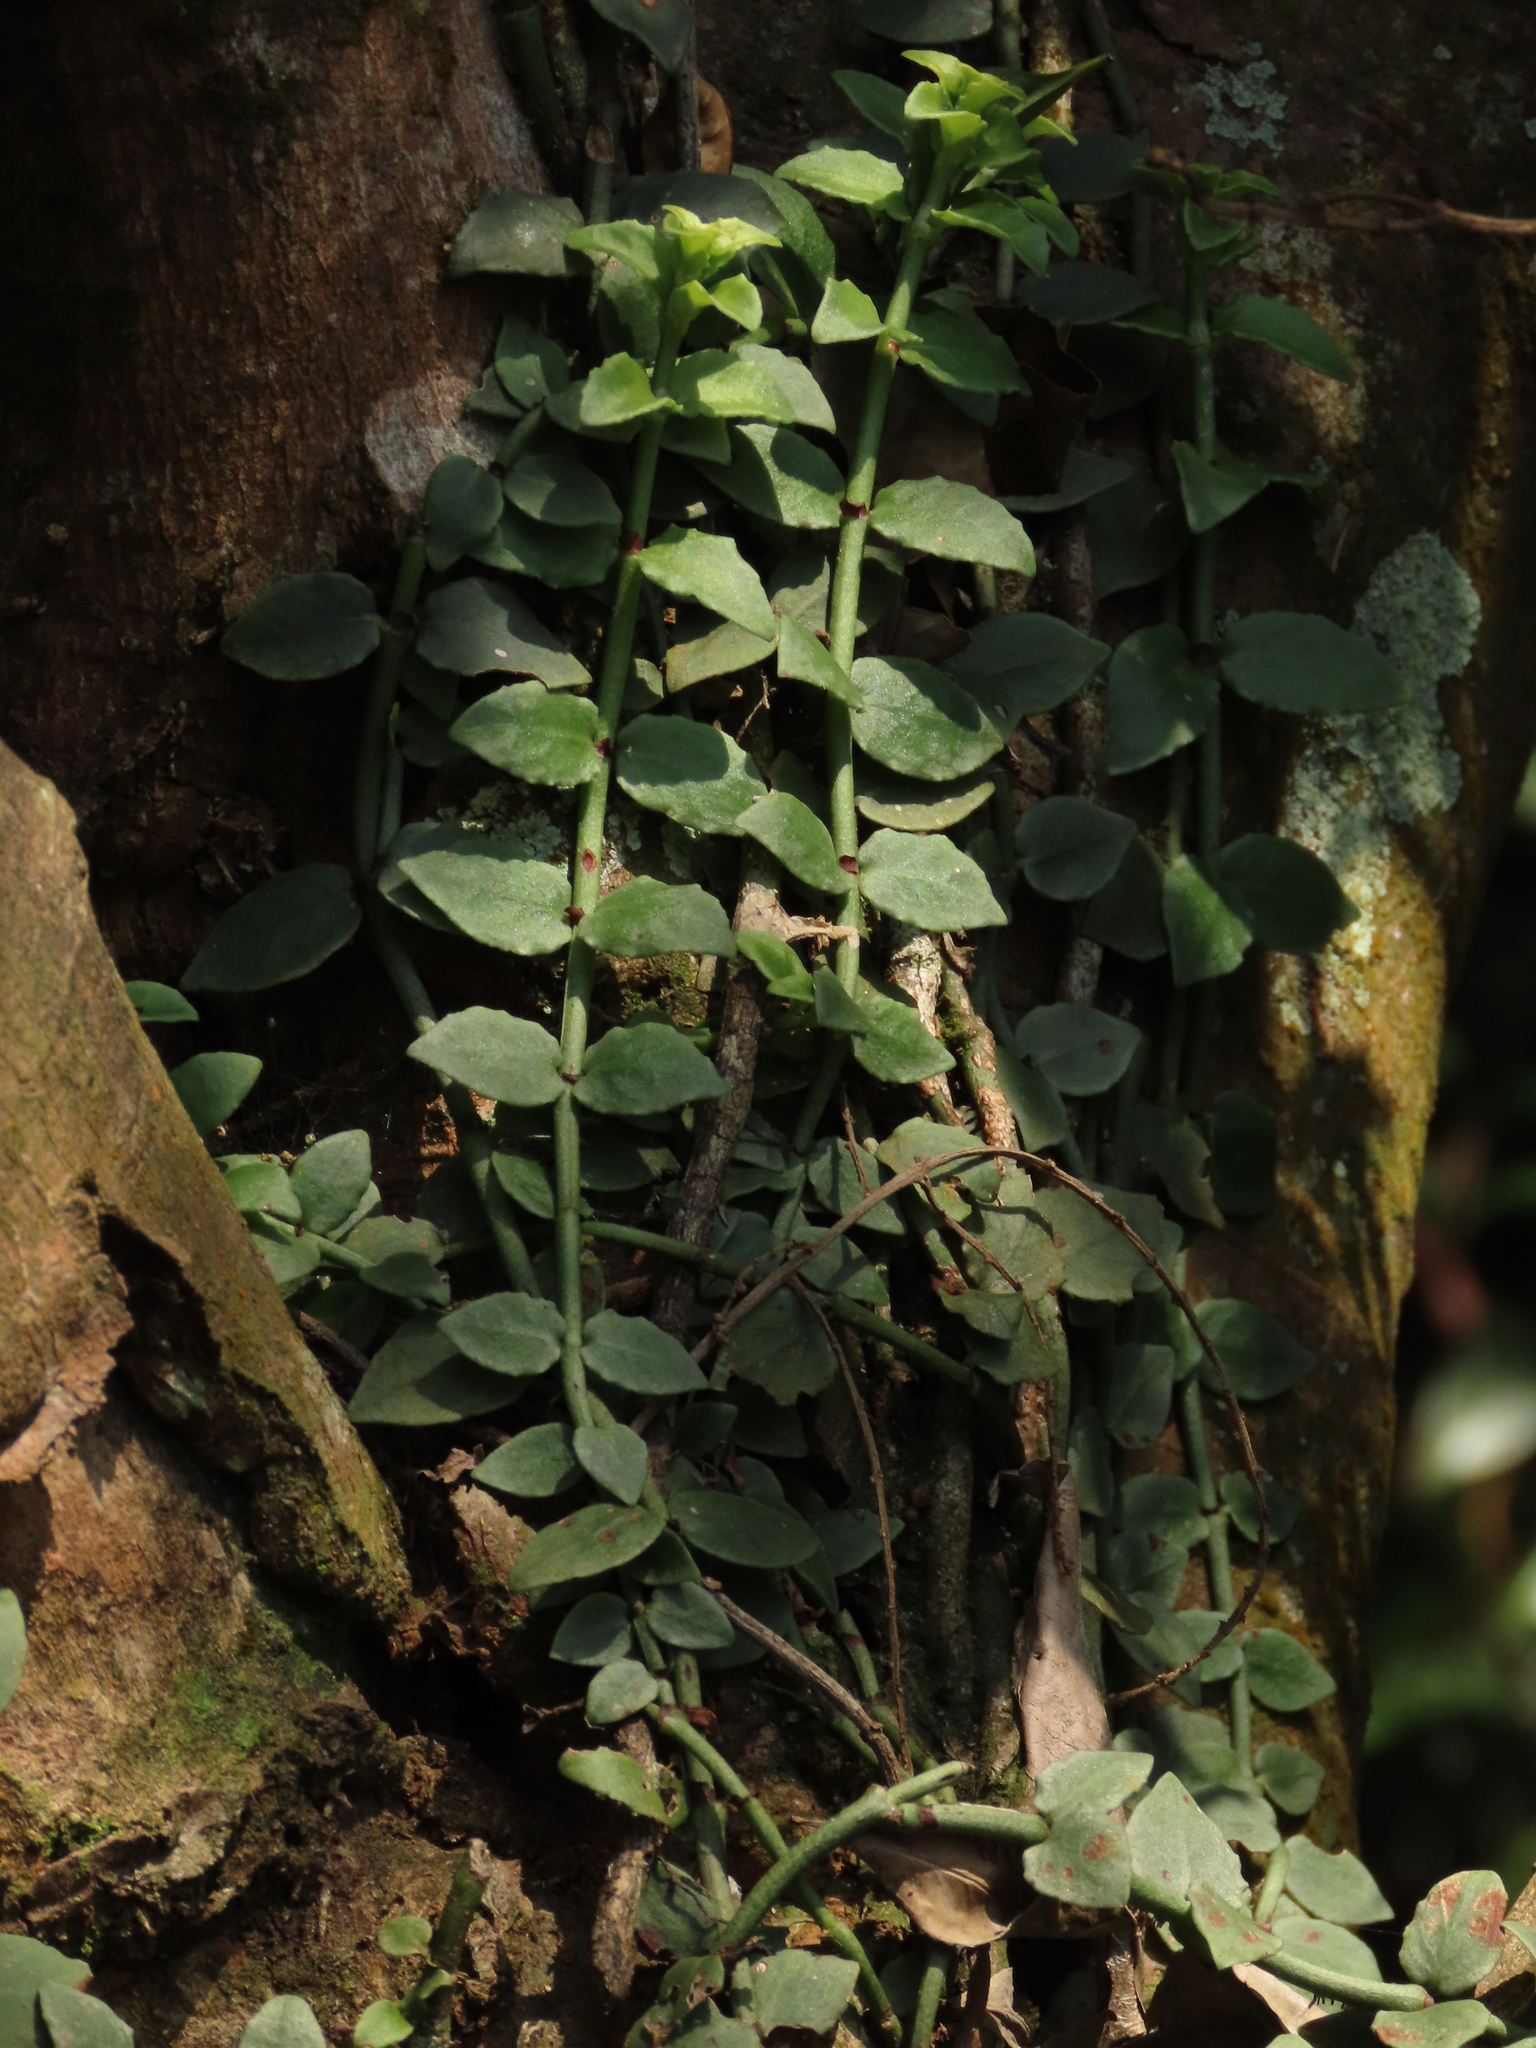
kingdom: Plantae
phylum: Tracheophyta
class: Magnoliopsida
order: Gentianales
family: Rubiaceae
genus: Psychotria
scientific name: Psychotria serpens
